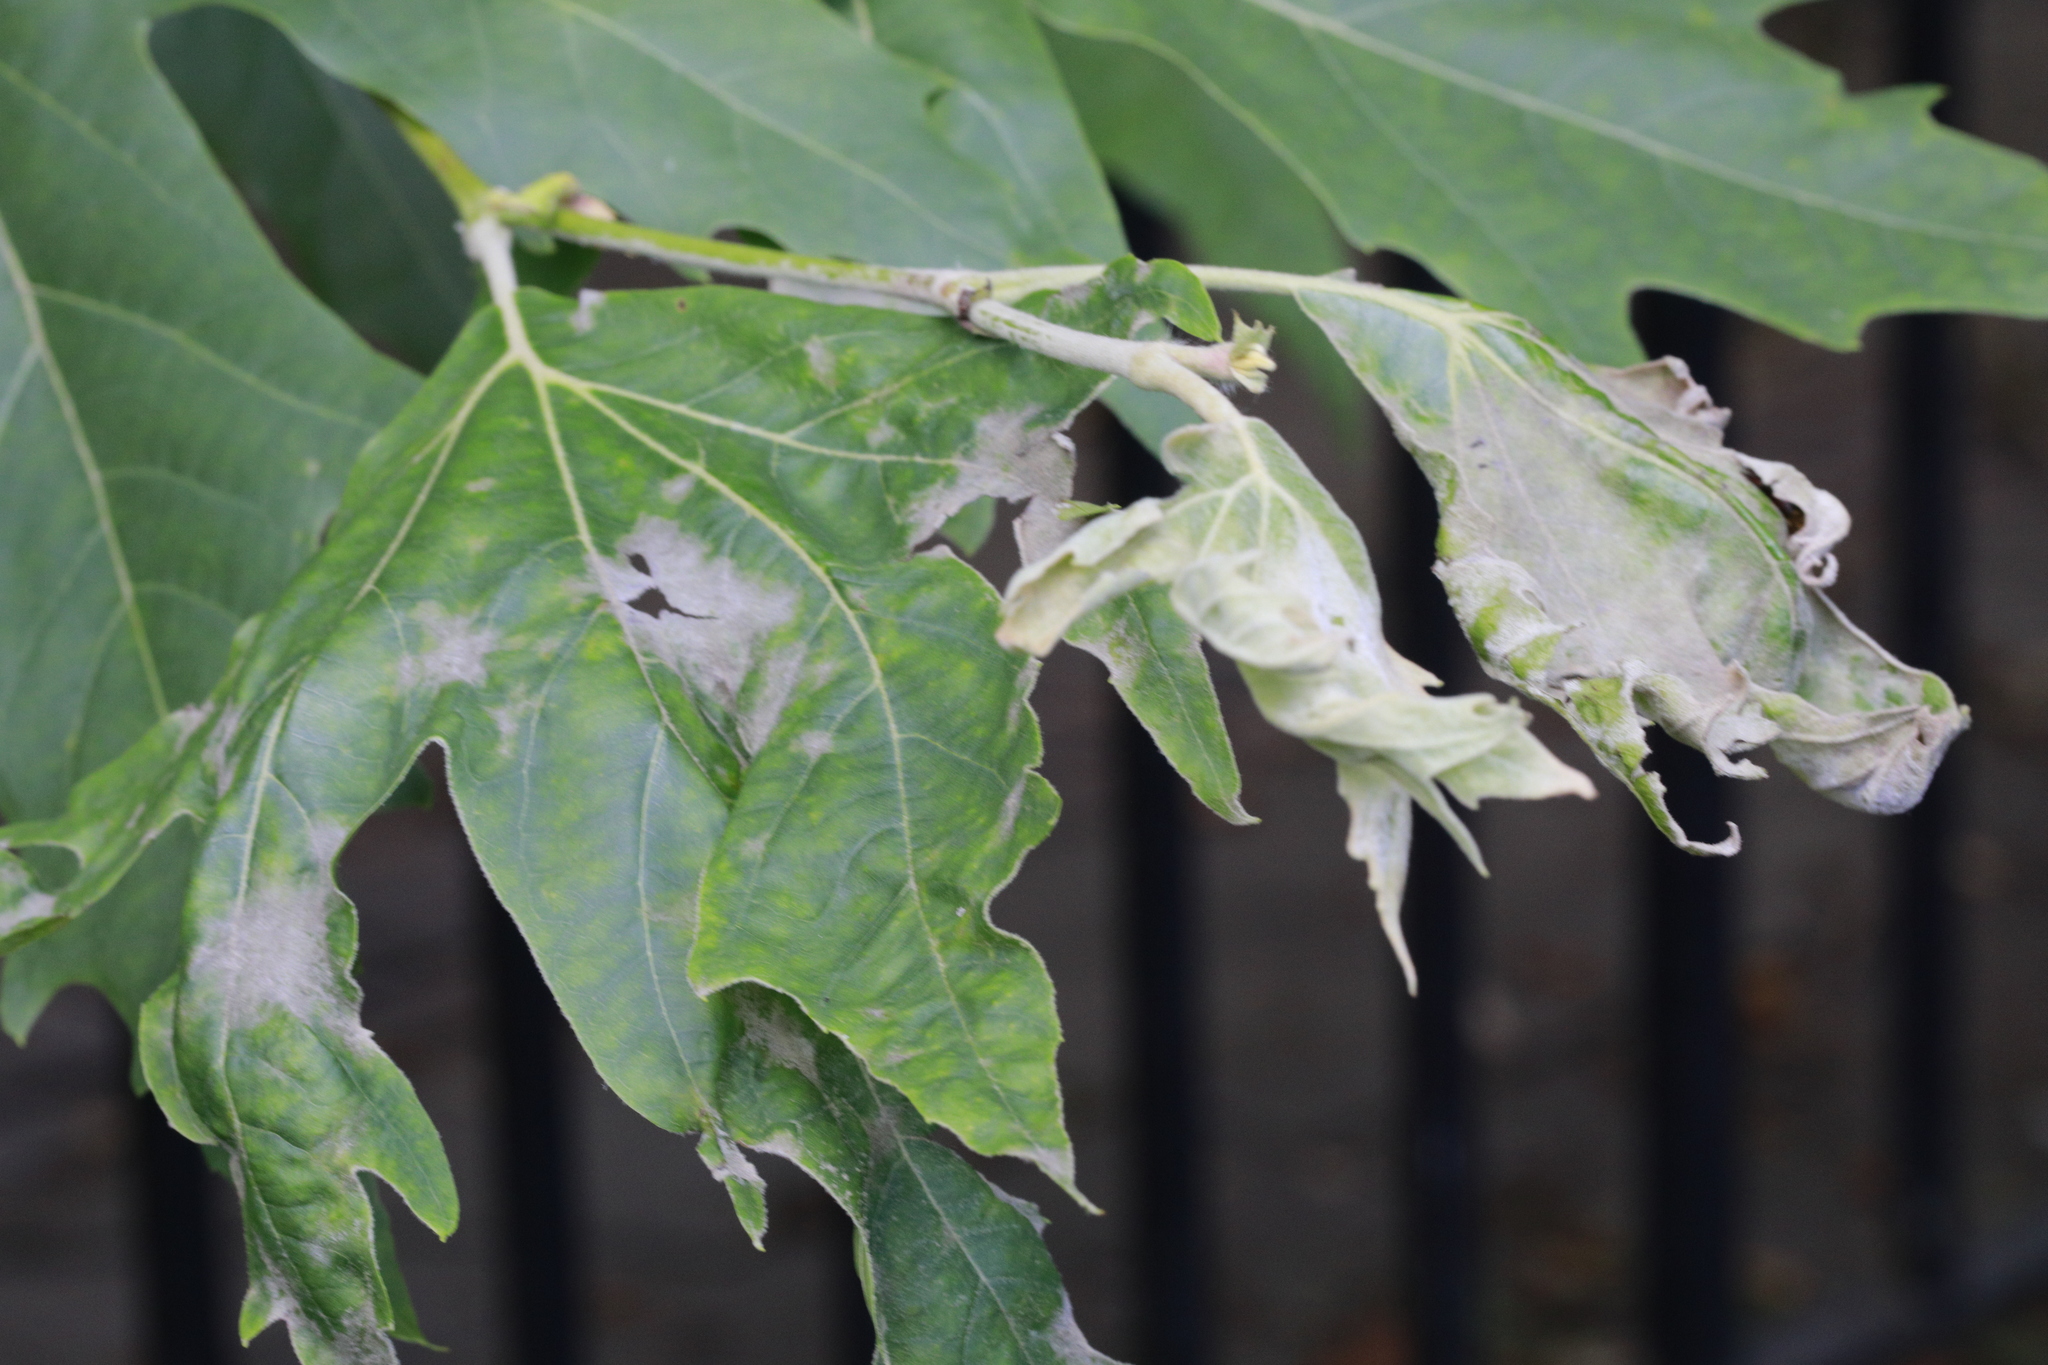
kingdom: Fungi
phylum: Ascomycota
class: Leotiomycetes
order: Helotiales
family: Erysiphaceae
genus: Erysiphe
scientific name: Erysiphe platani
